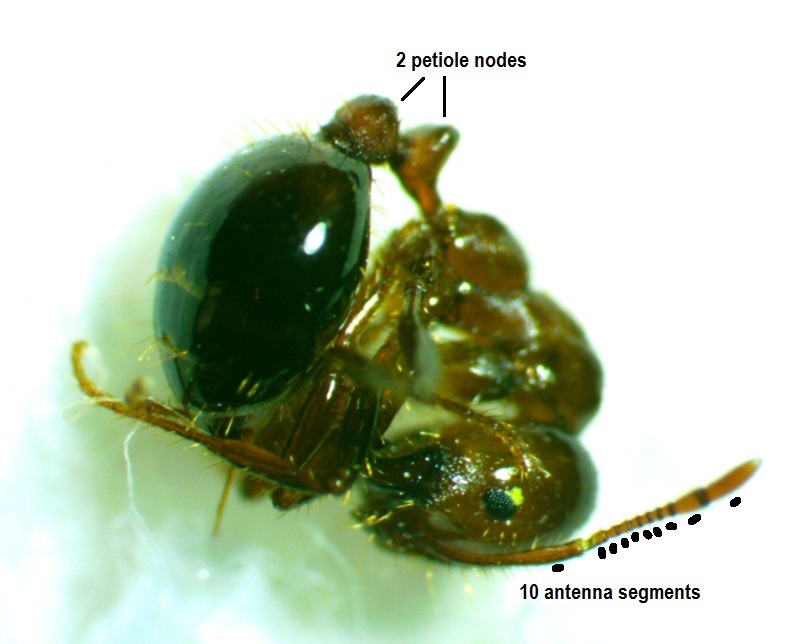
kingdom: Animalia
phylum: Arthropoda
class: Insecta
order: Hymenoptera
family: Formicidae
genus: Solenopsis
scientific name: Solenopsis invicta
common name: Red imported fire ant
